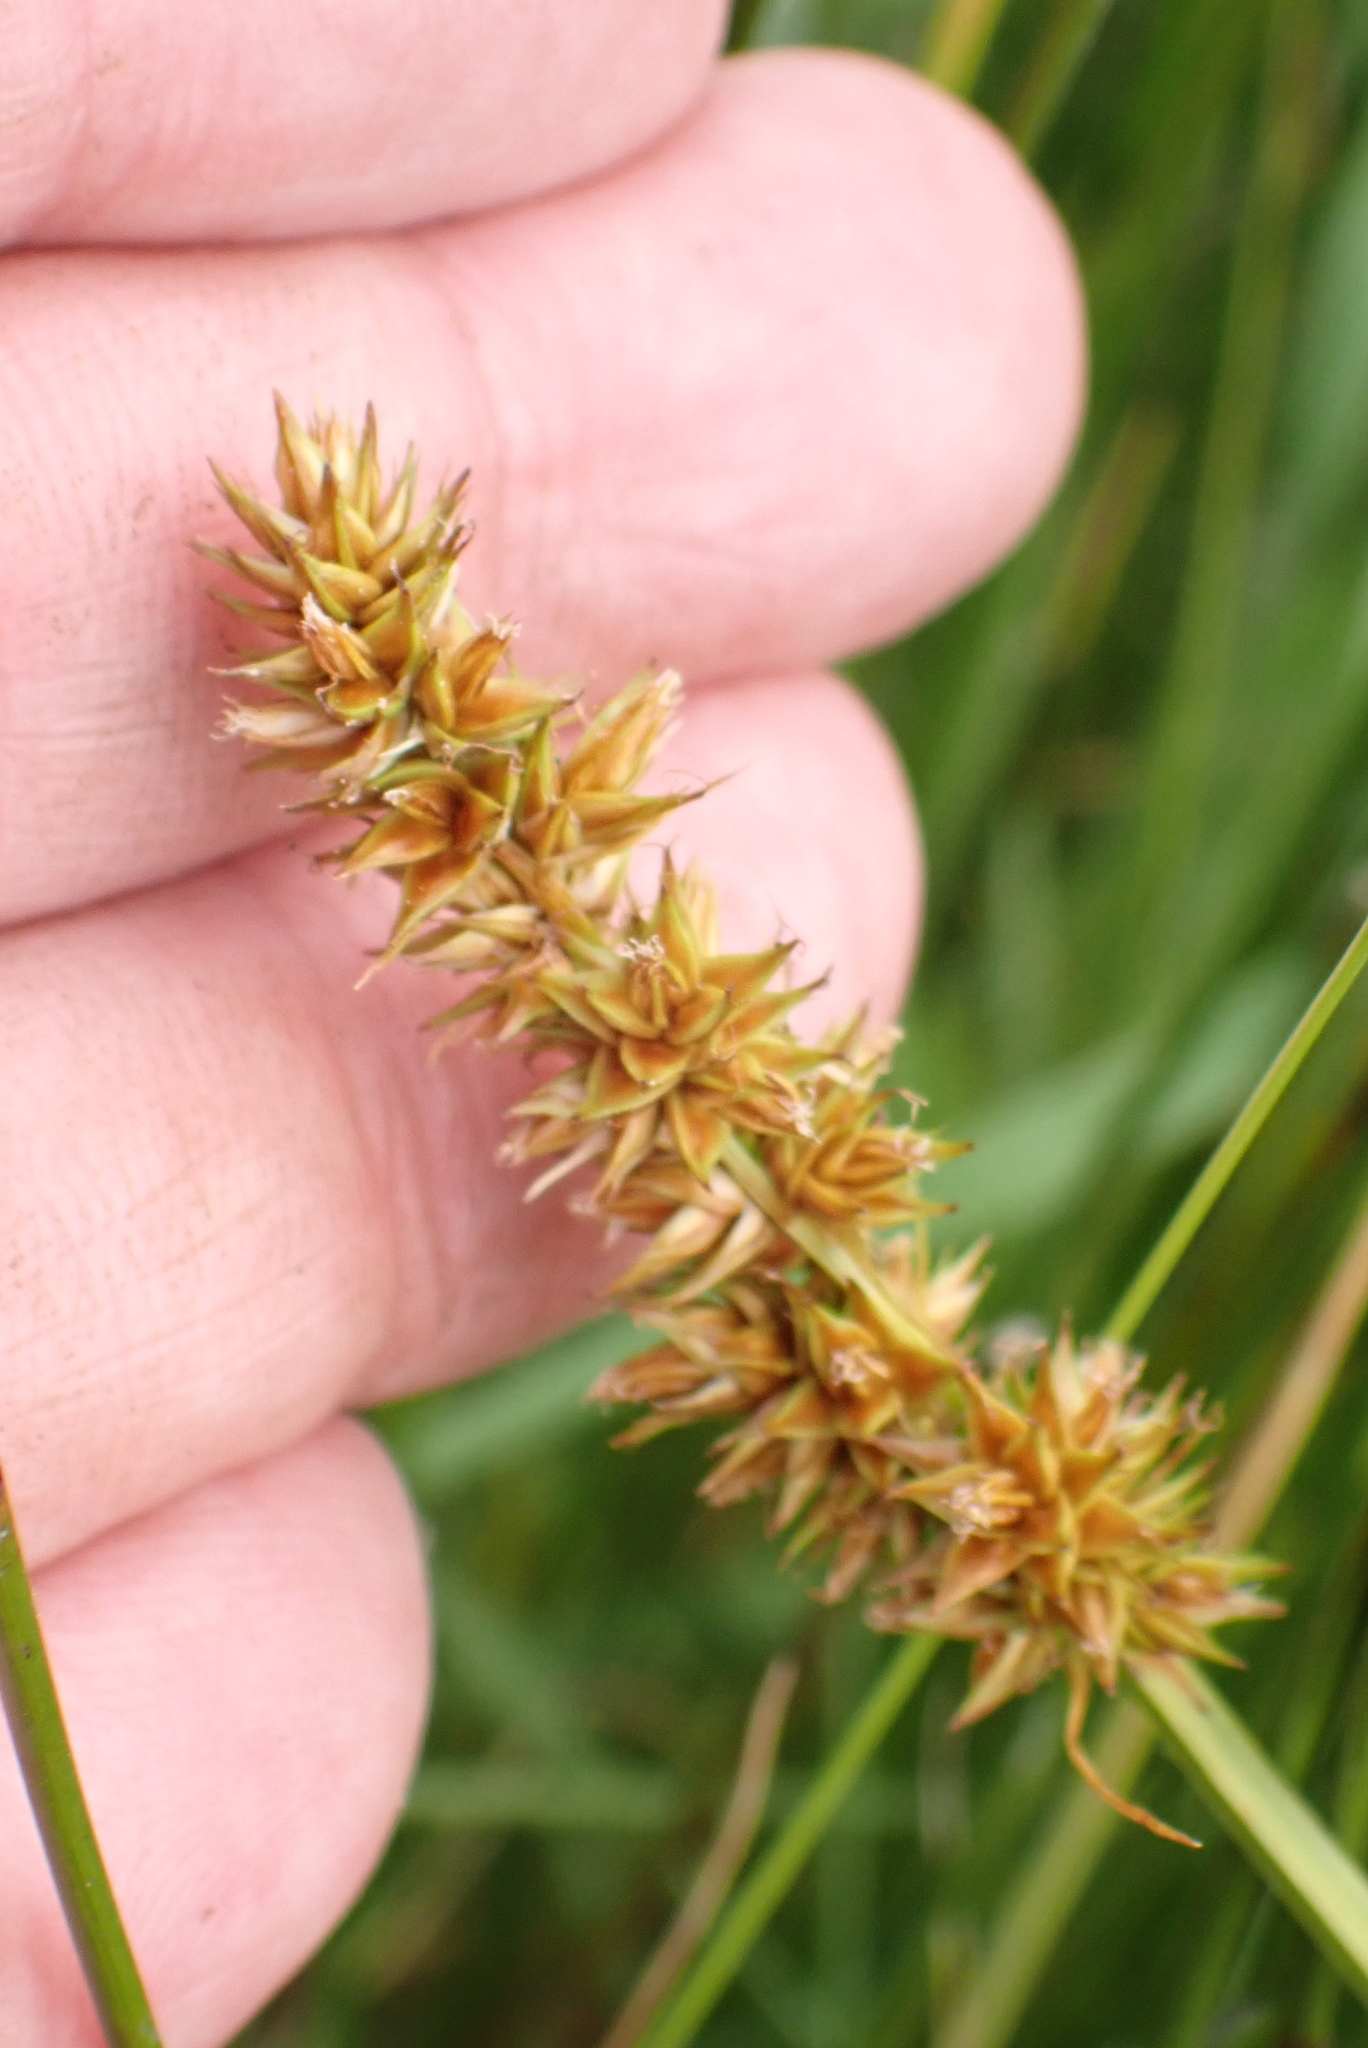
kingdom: Plantae
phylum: Tracheophyta
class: Liliopsida
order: Poales
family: Cyperaceae
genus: Carex
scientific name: Carex otrubae
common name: False fox-sedge
